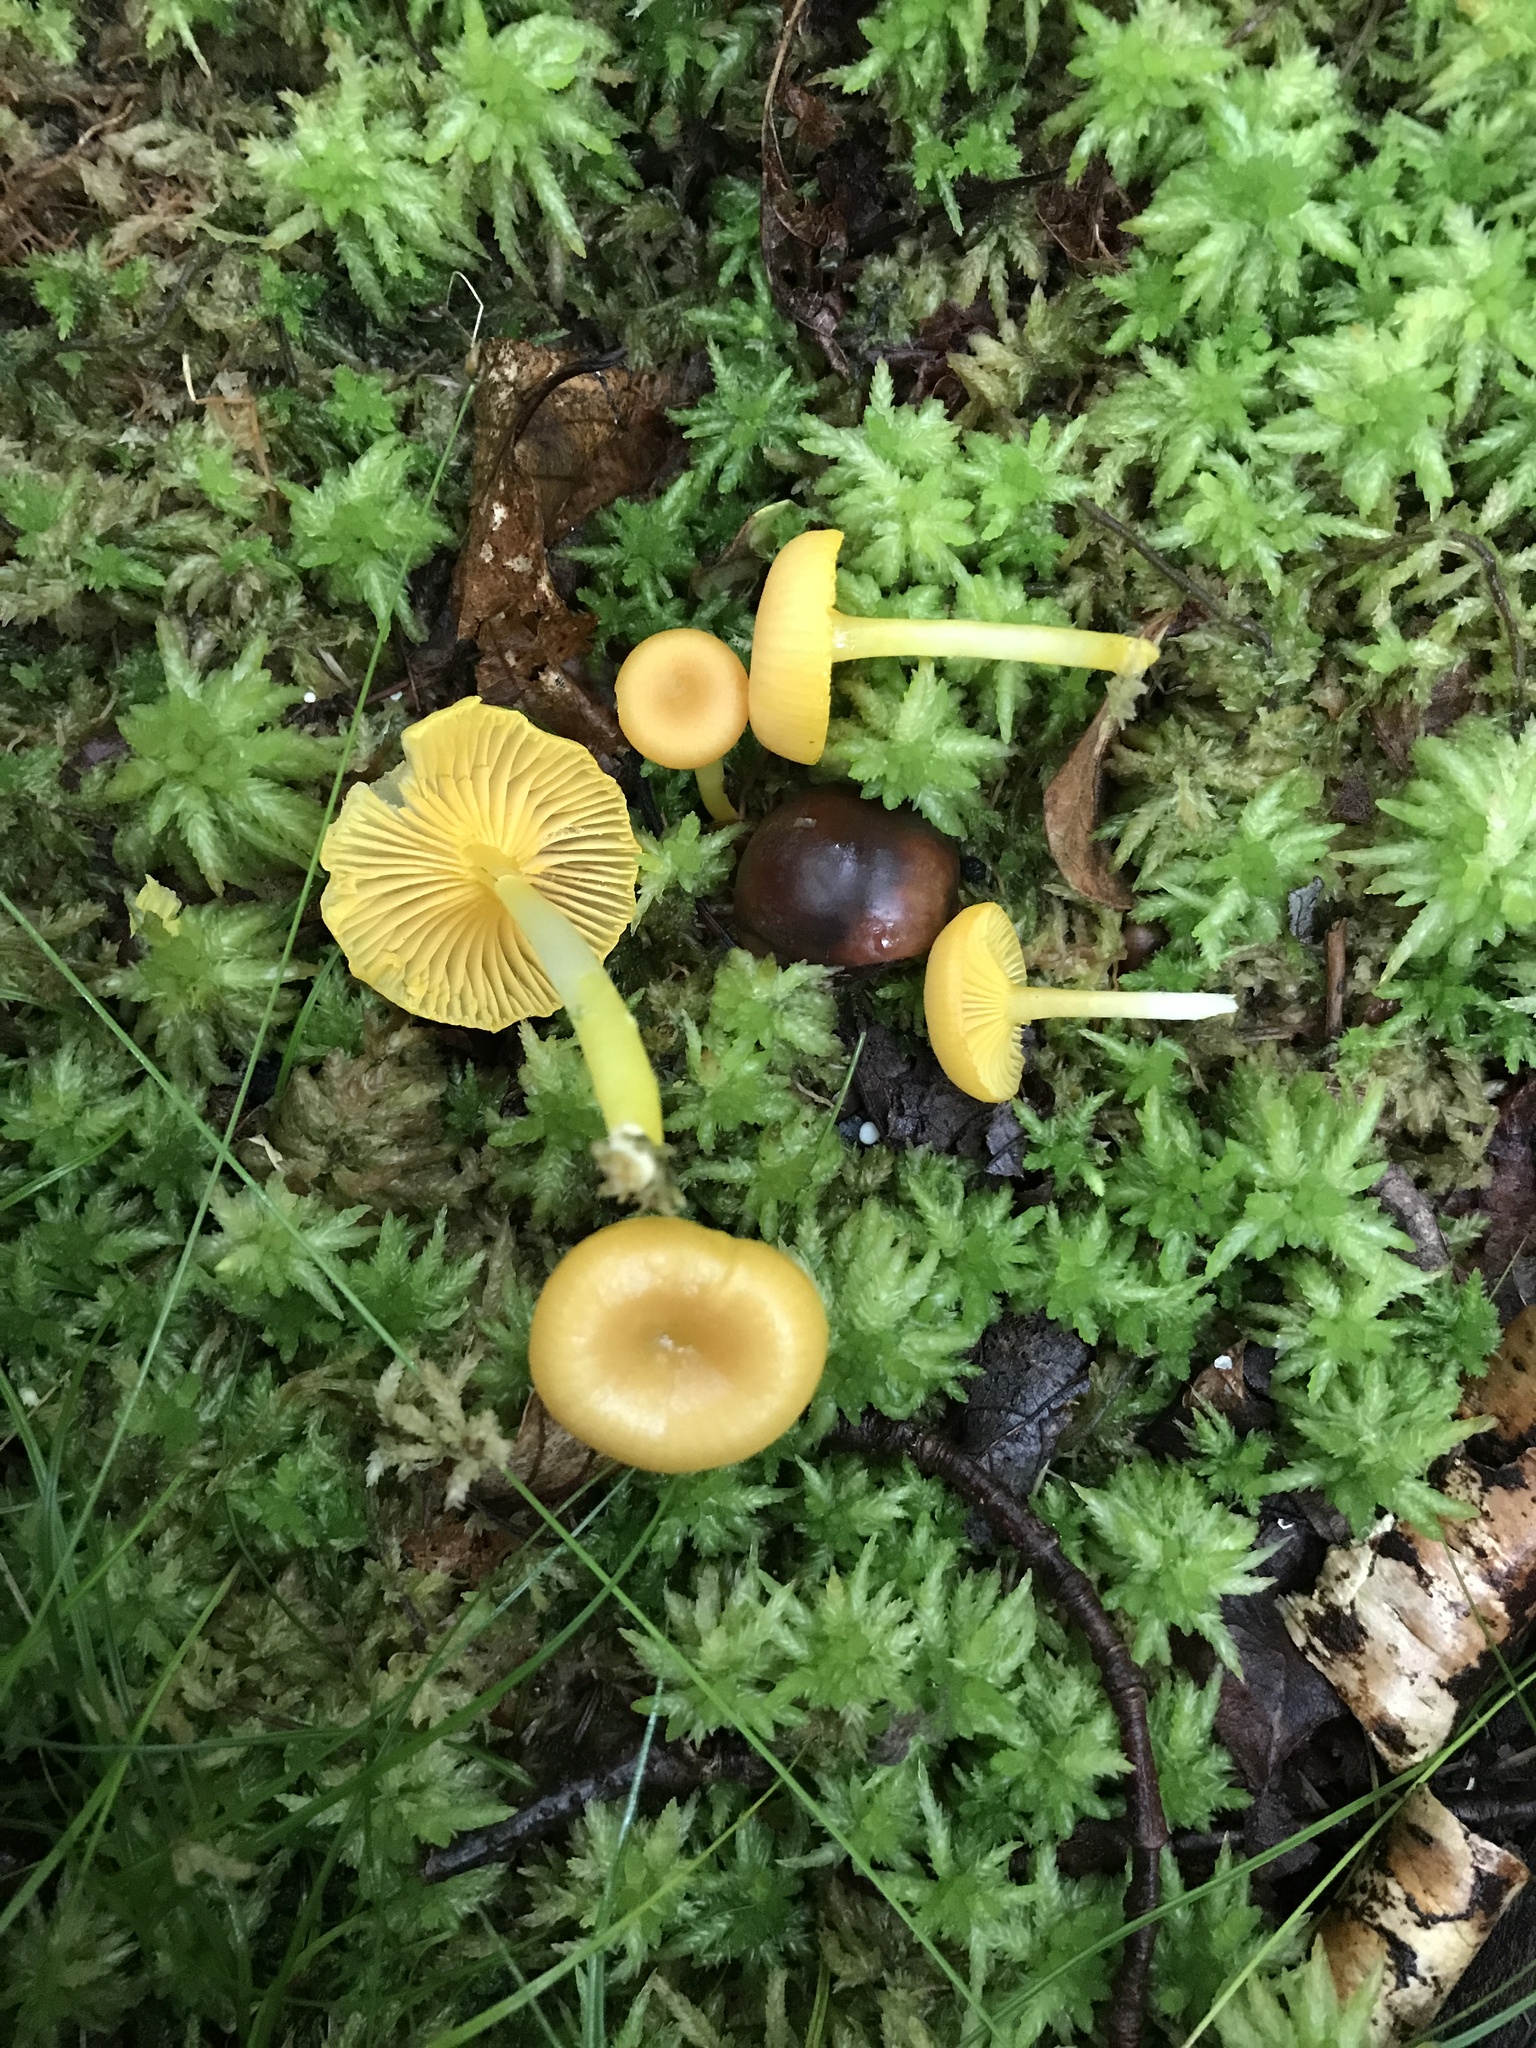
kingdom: Fungi
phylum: Basidiomycota
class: Agaricomycetes
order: Agaricales
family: Hygrophoraceae
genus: Gloioxanthomyces
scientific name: Gloioxanthomyces nitidus
